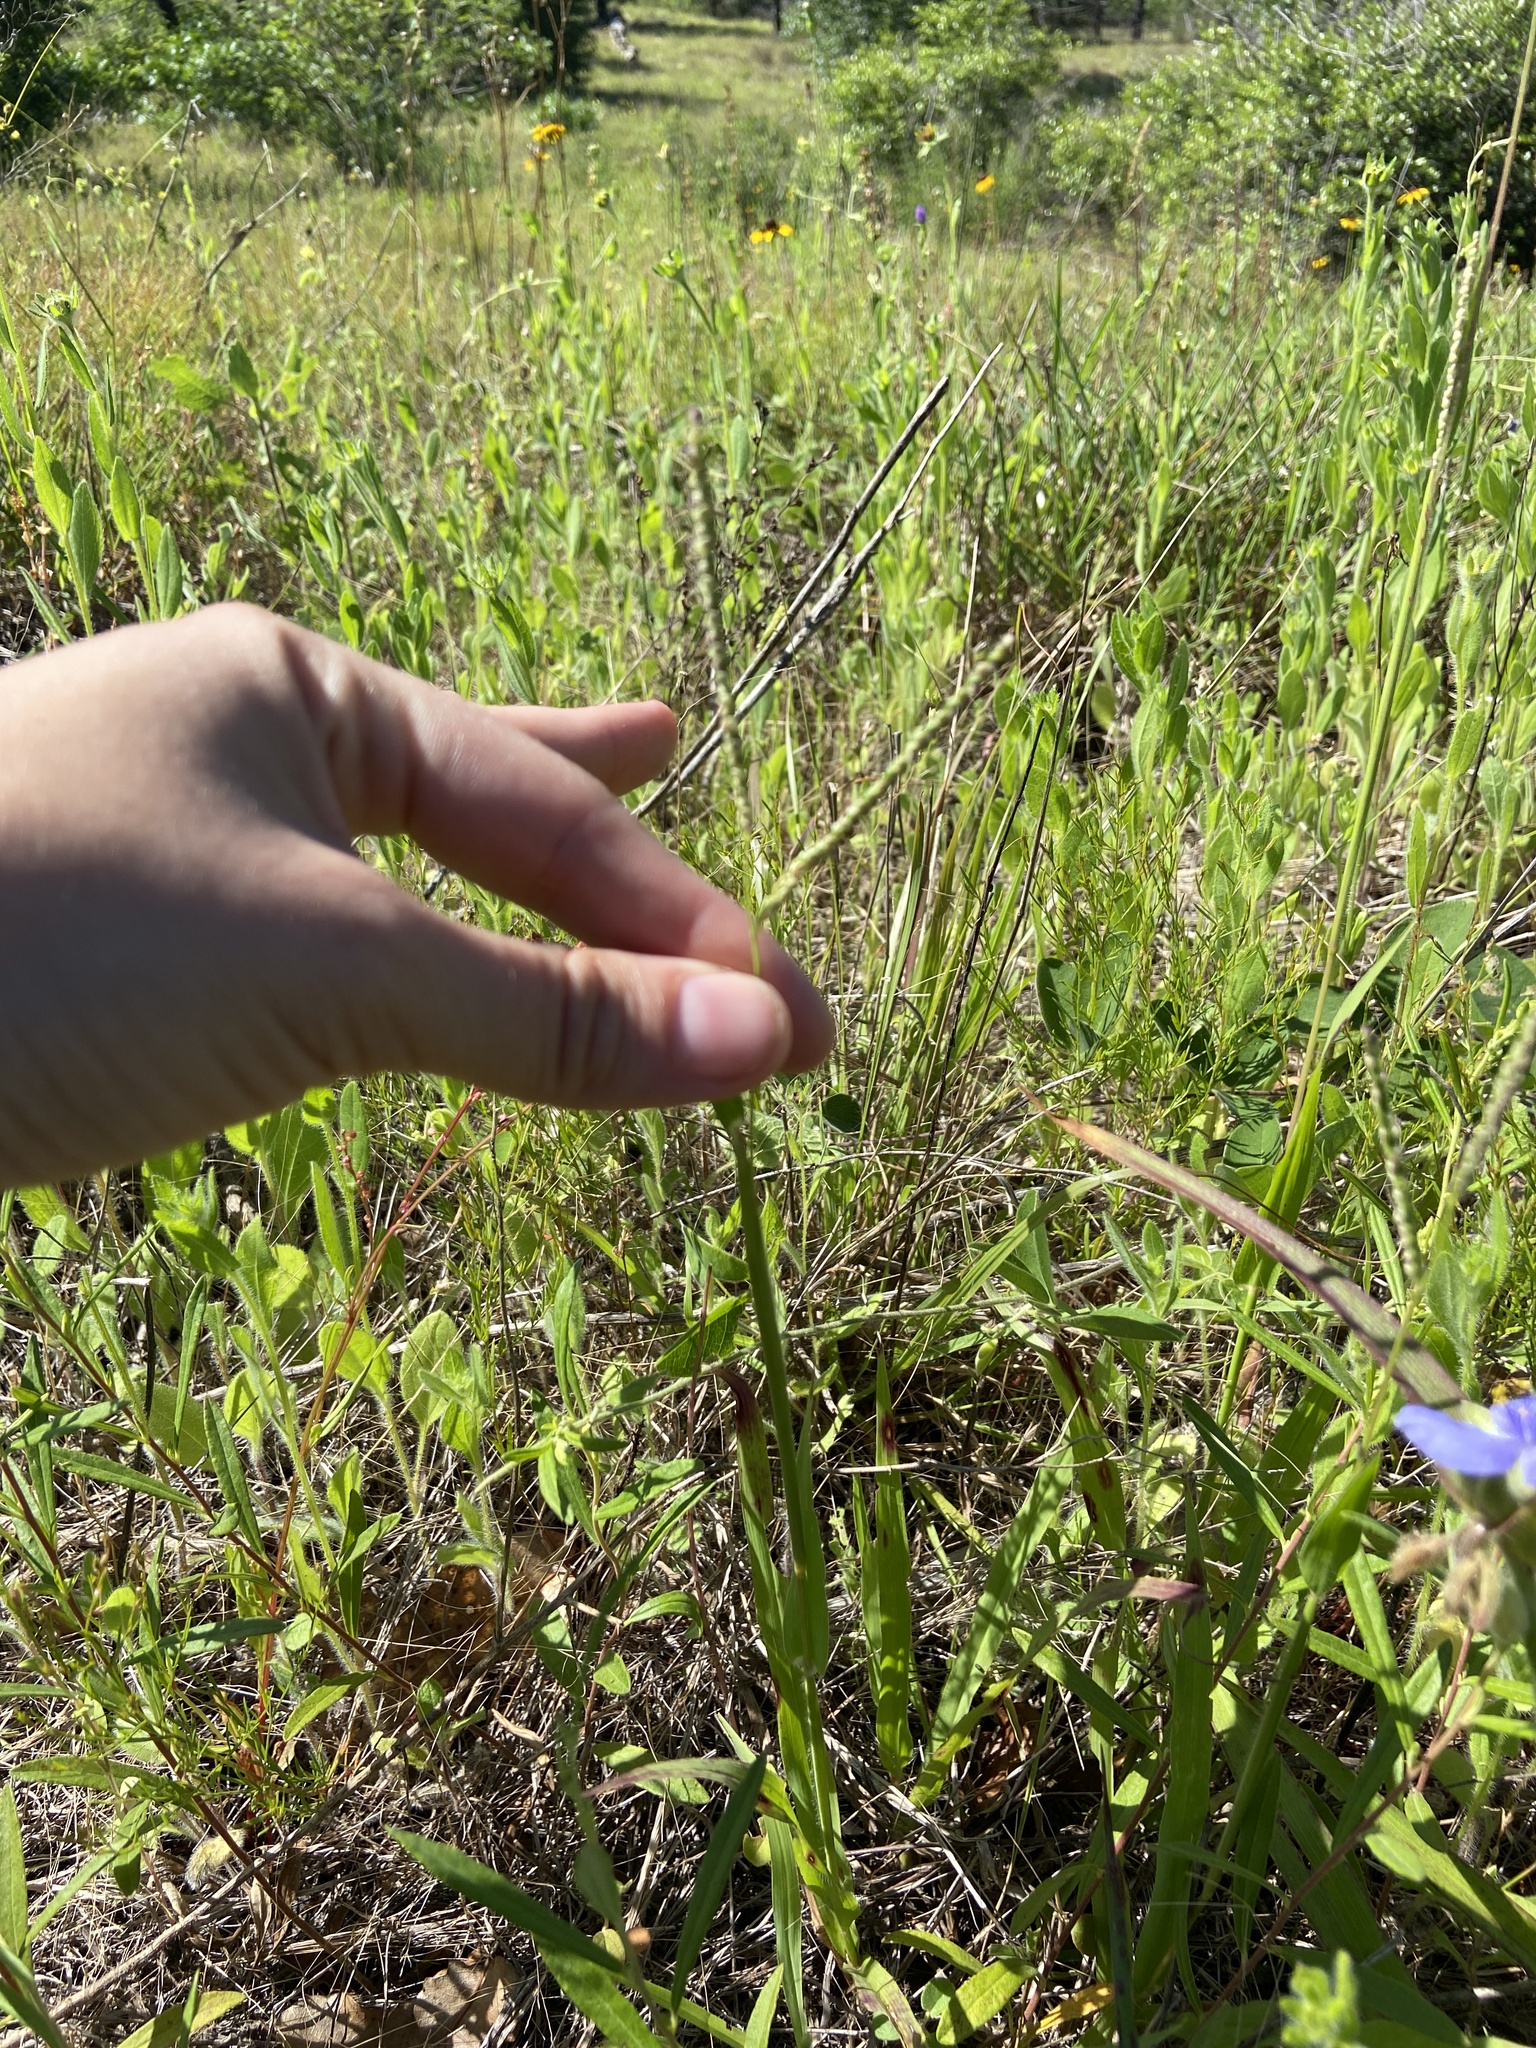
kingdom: Plantae
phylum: Tracheophyta
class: Liliopsida
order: Poales
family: Poaceae
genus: Paspalum
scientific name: Paspalum setaceum
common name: Slender paspalum
